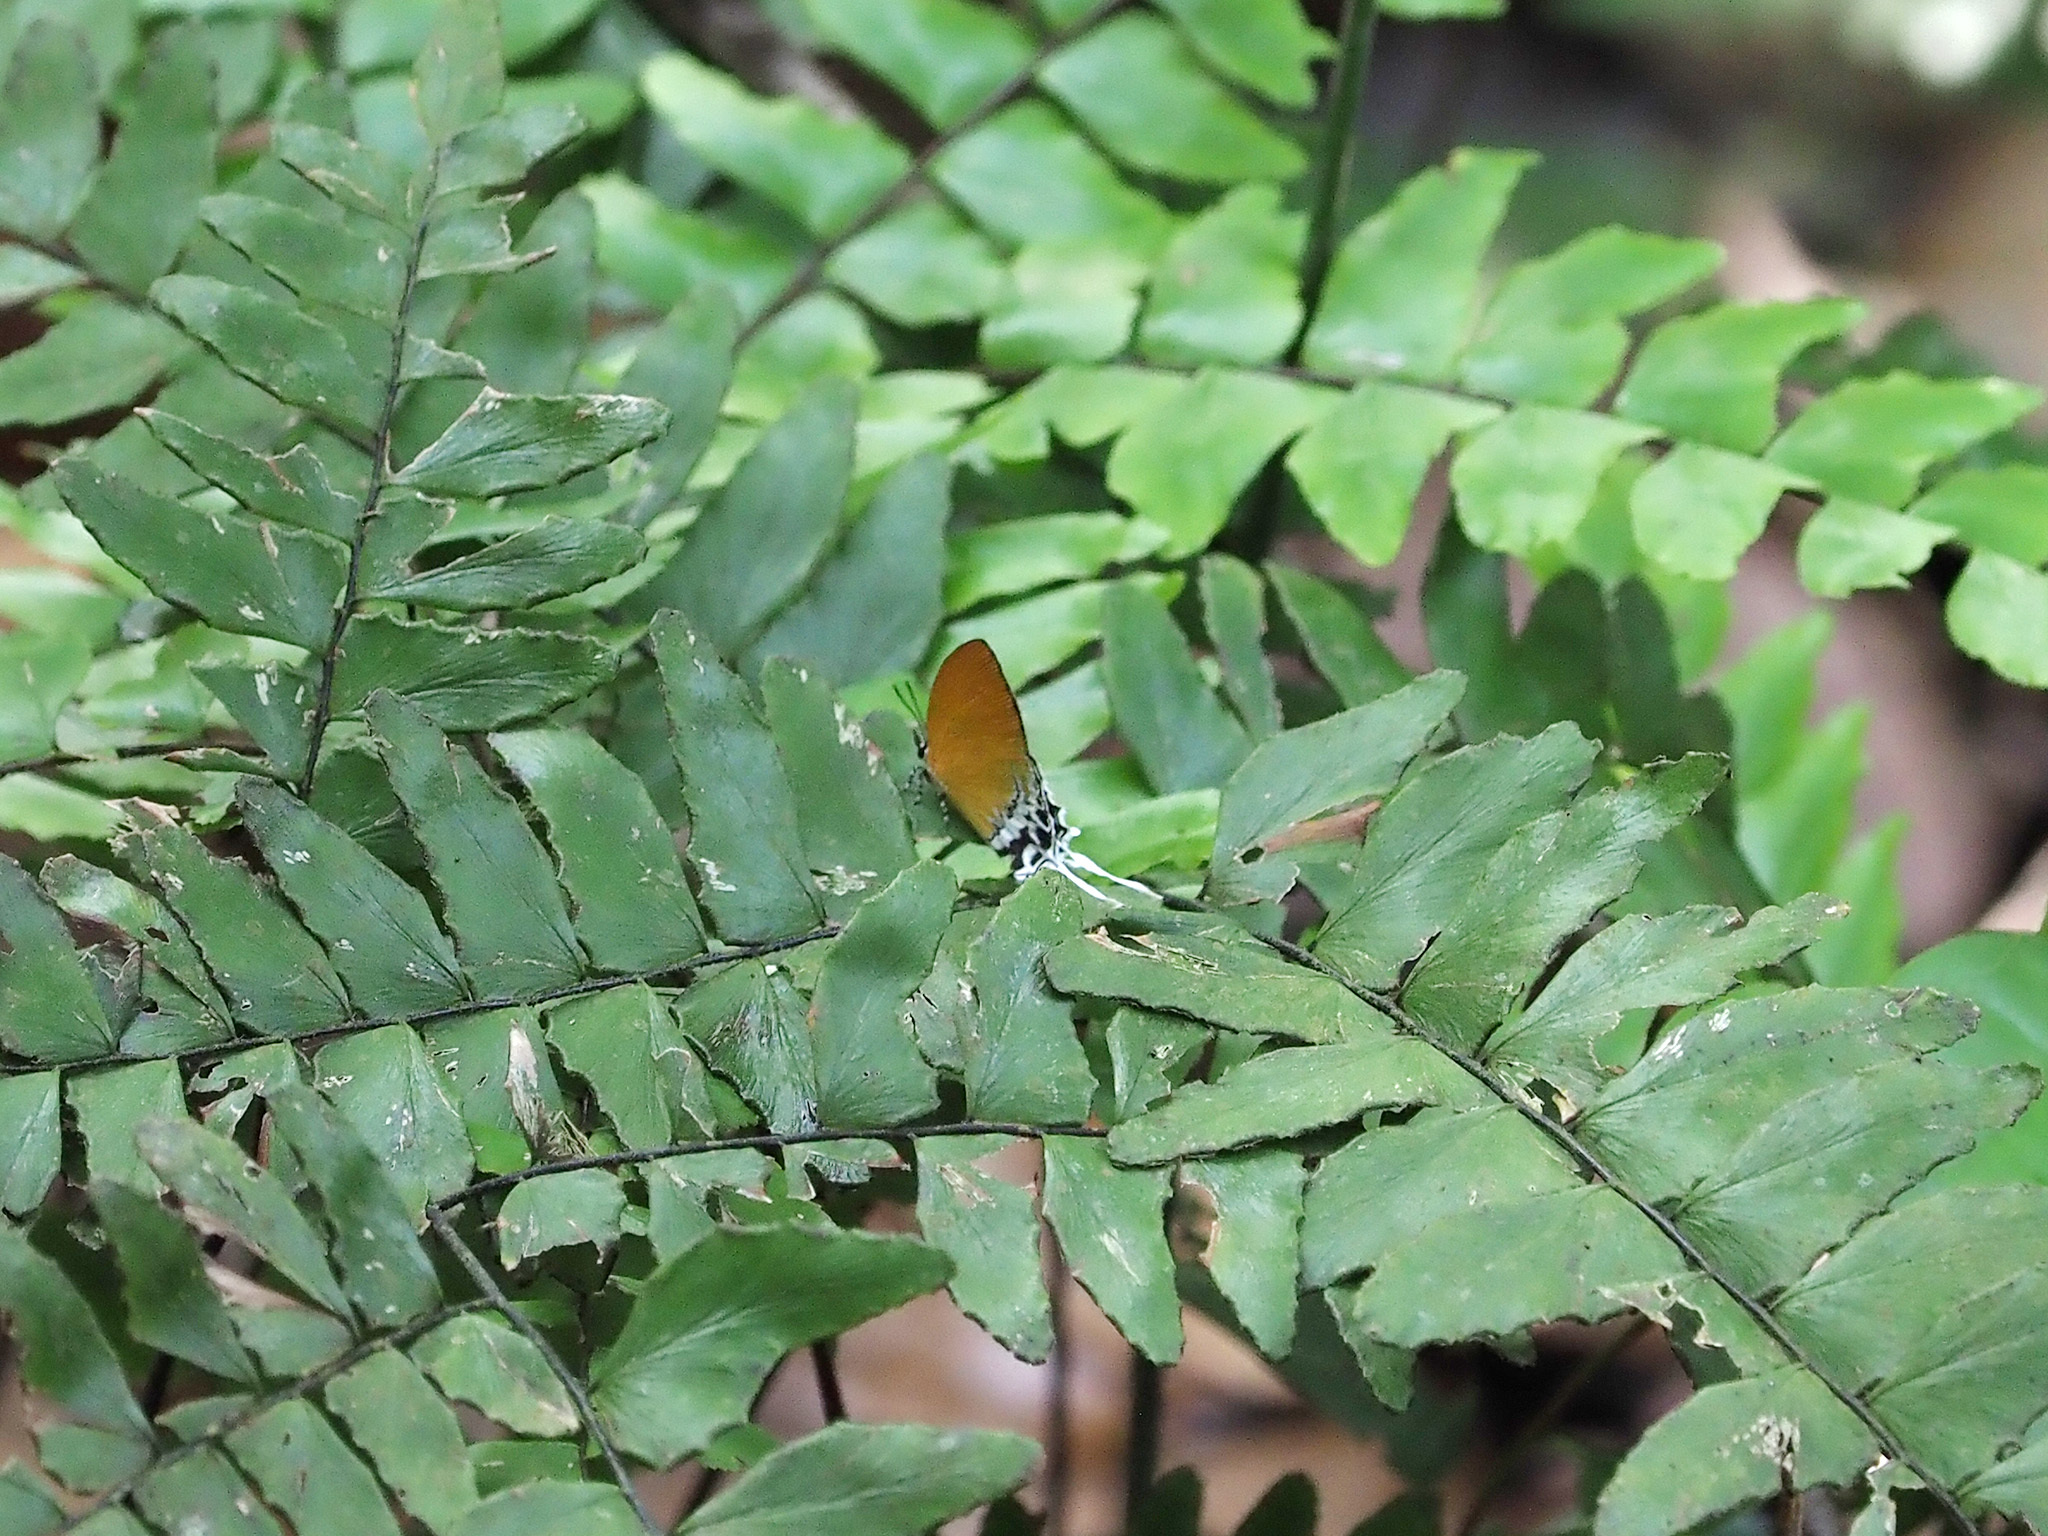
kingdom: Animalia
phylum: Arthropoda
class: Insecta
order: Lepidoptera
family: Lycaenidae
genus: Eooxylides
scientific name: Eooxylides tharis
